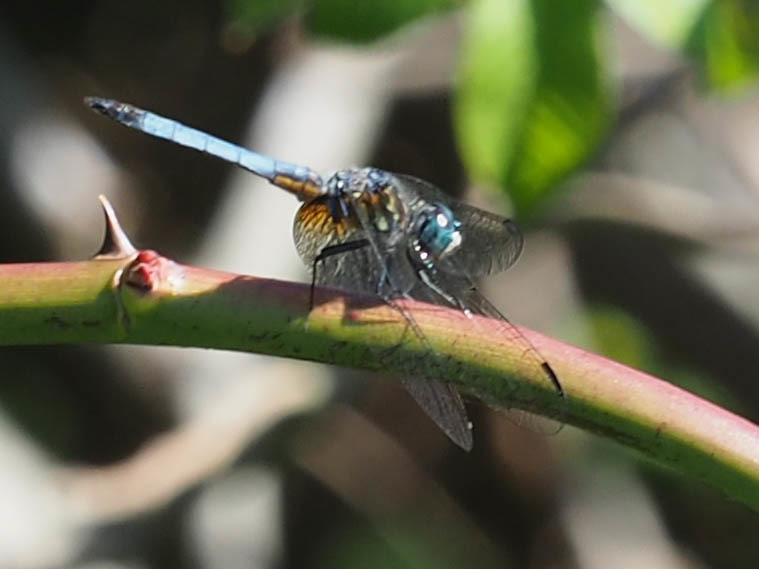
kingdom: Animalia
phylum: Arthropoda
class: Insecta
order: Odonata
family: Libellulidae
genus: Pachydiplax
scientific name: Pachydiplax longipennis
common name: Blue dasher
